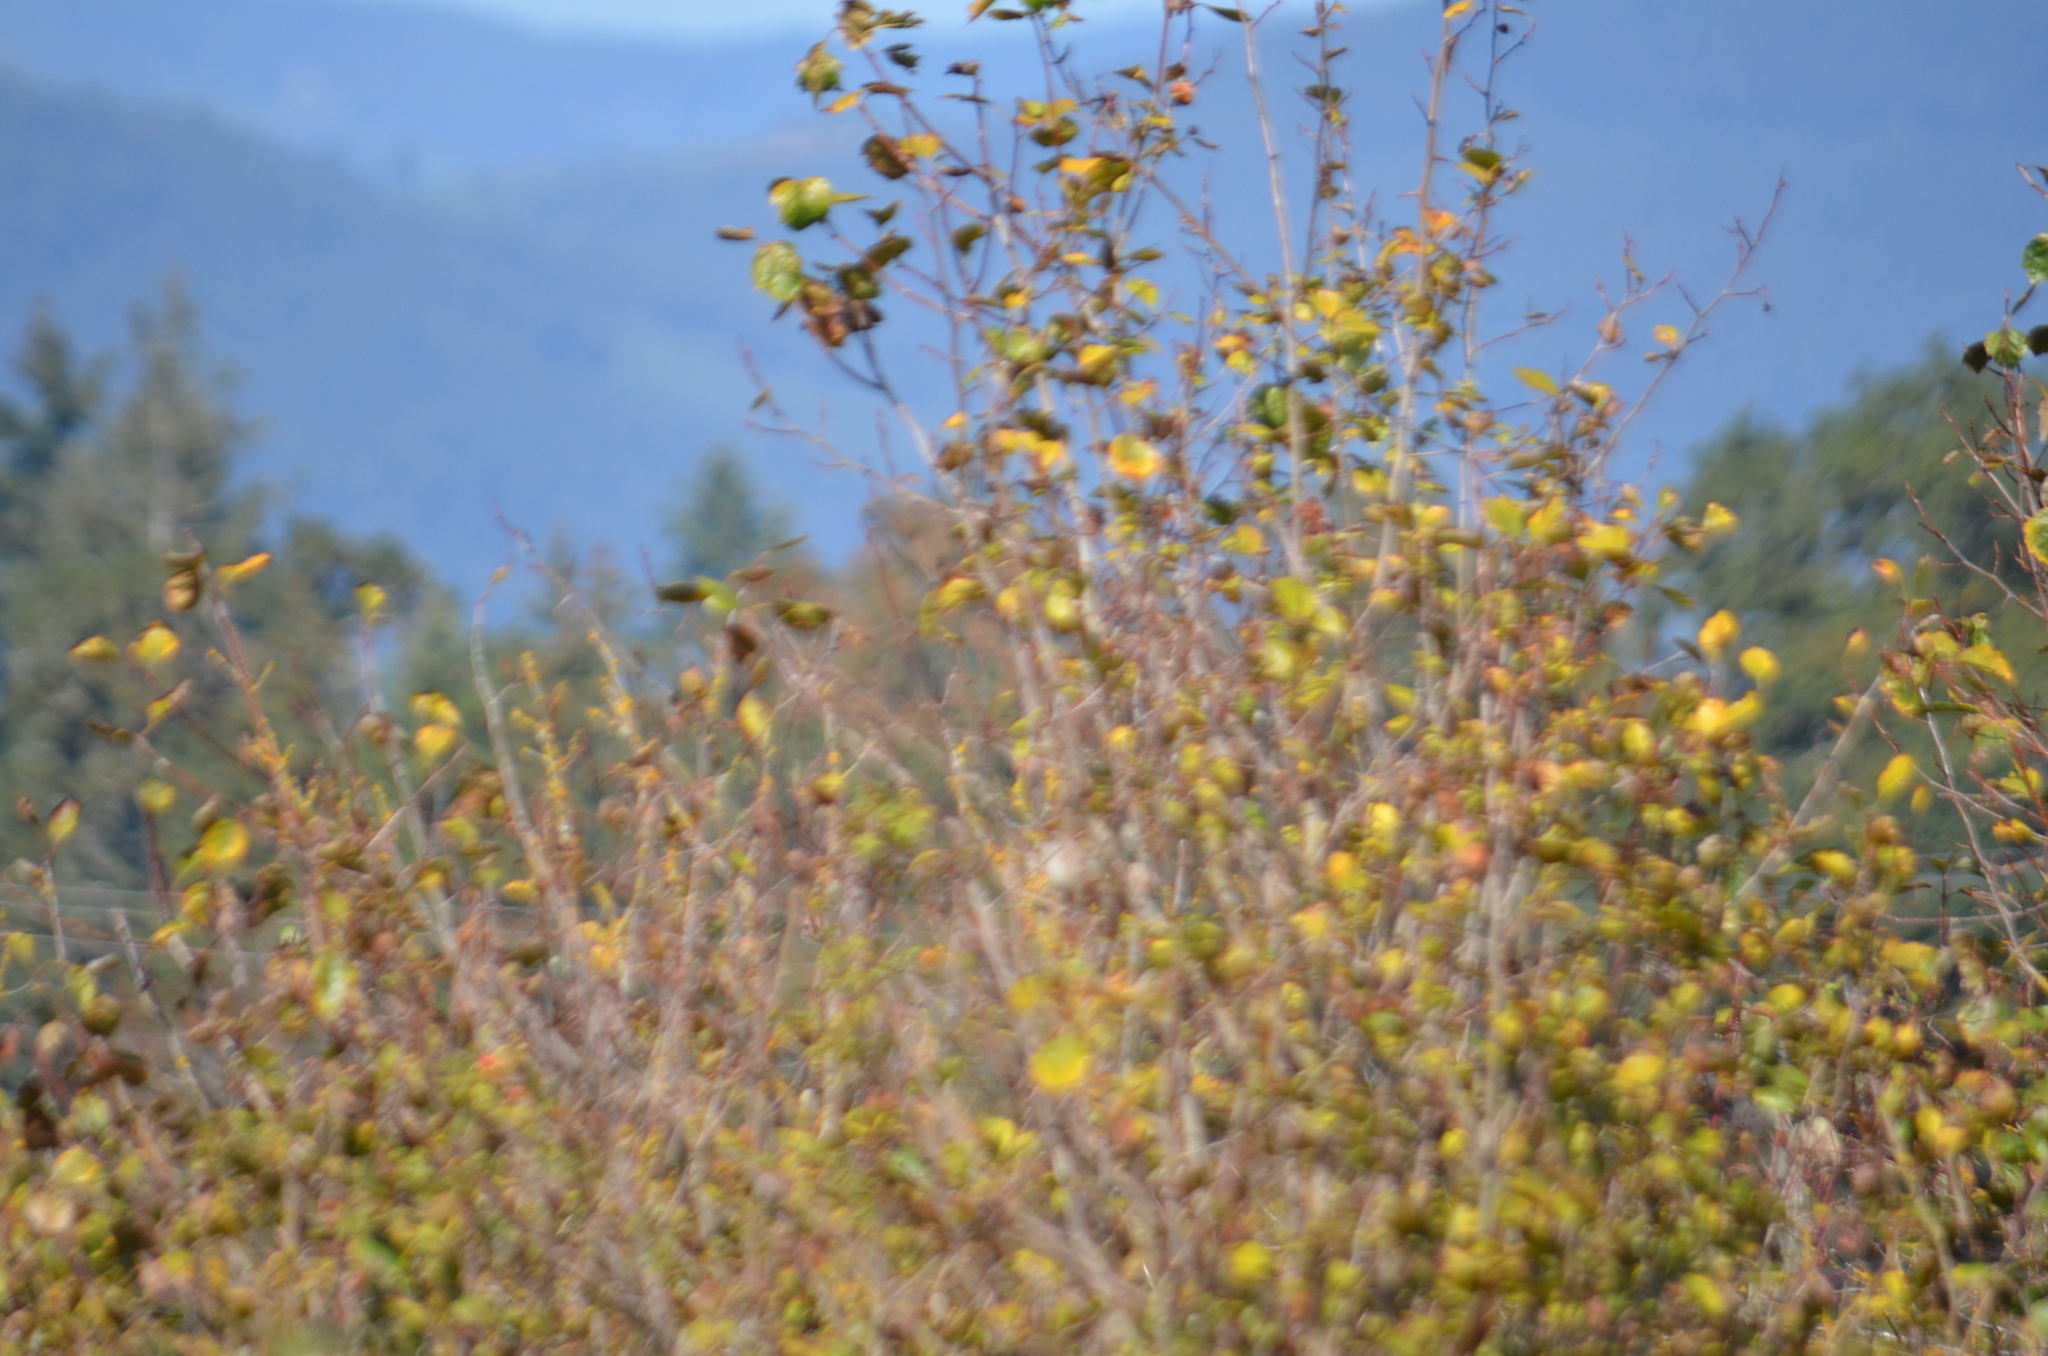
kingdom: Animalia
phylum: Chordata
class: Aves
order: Passeriformes
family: Passerellidae
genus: Zonotrichia
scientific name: Zonotrichia atricapilla
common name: Golden-crowned sparrow
